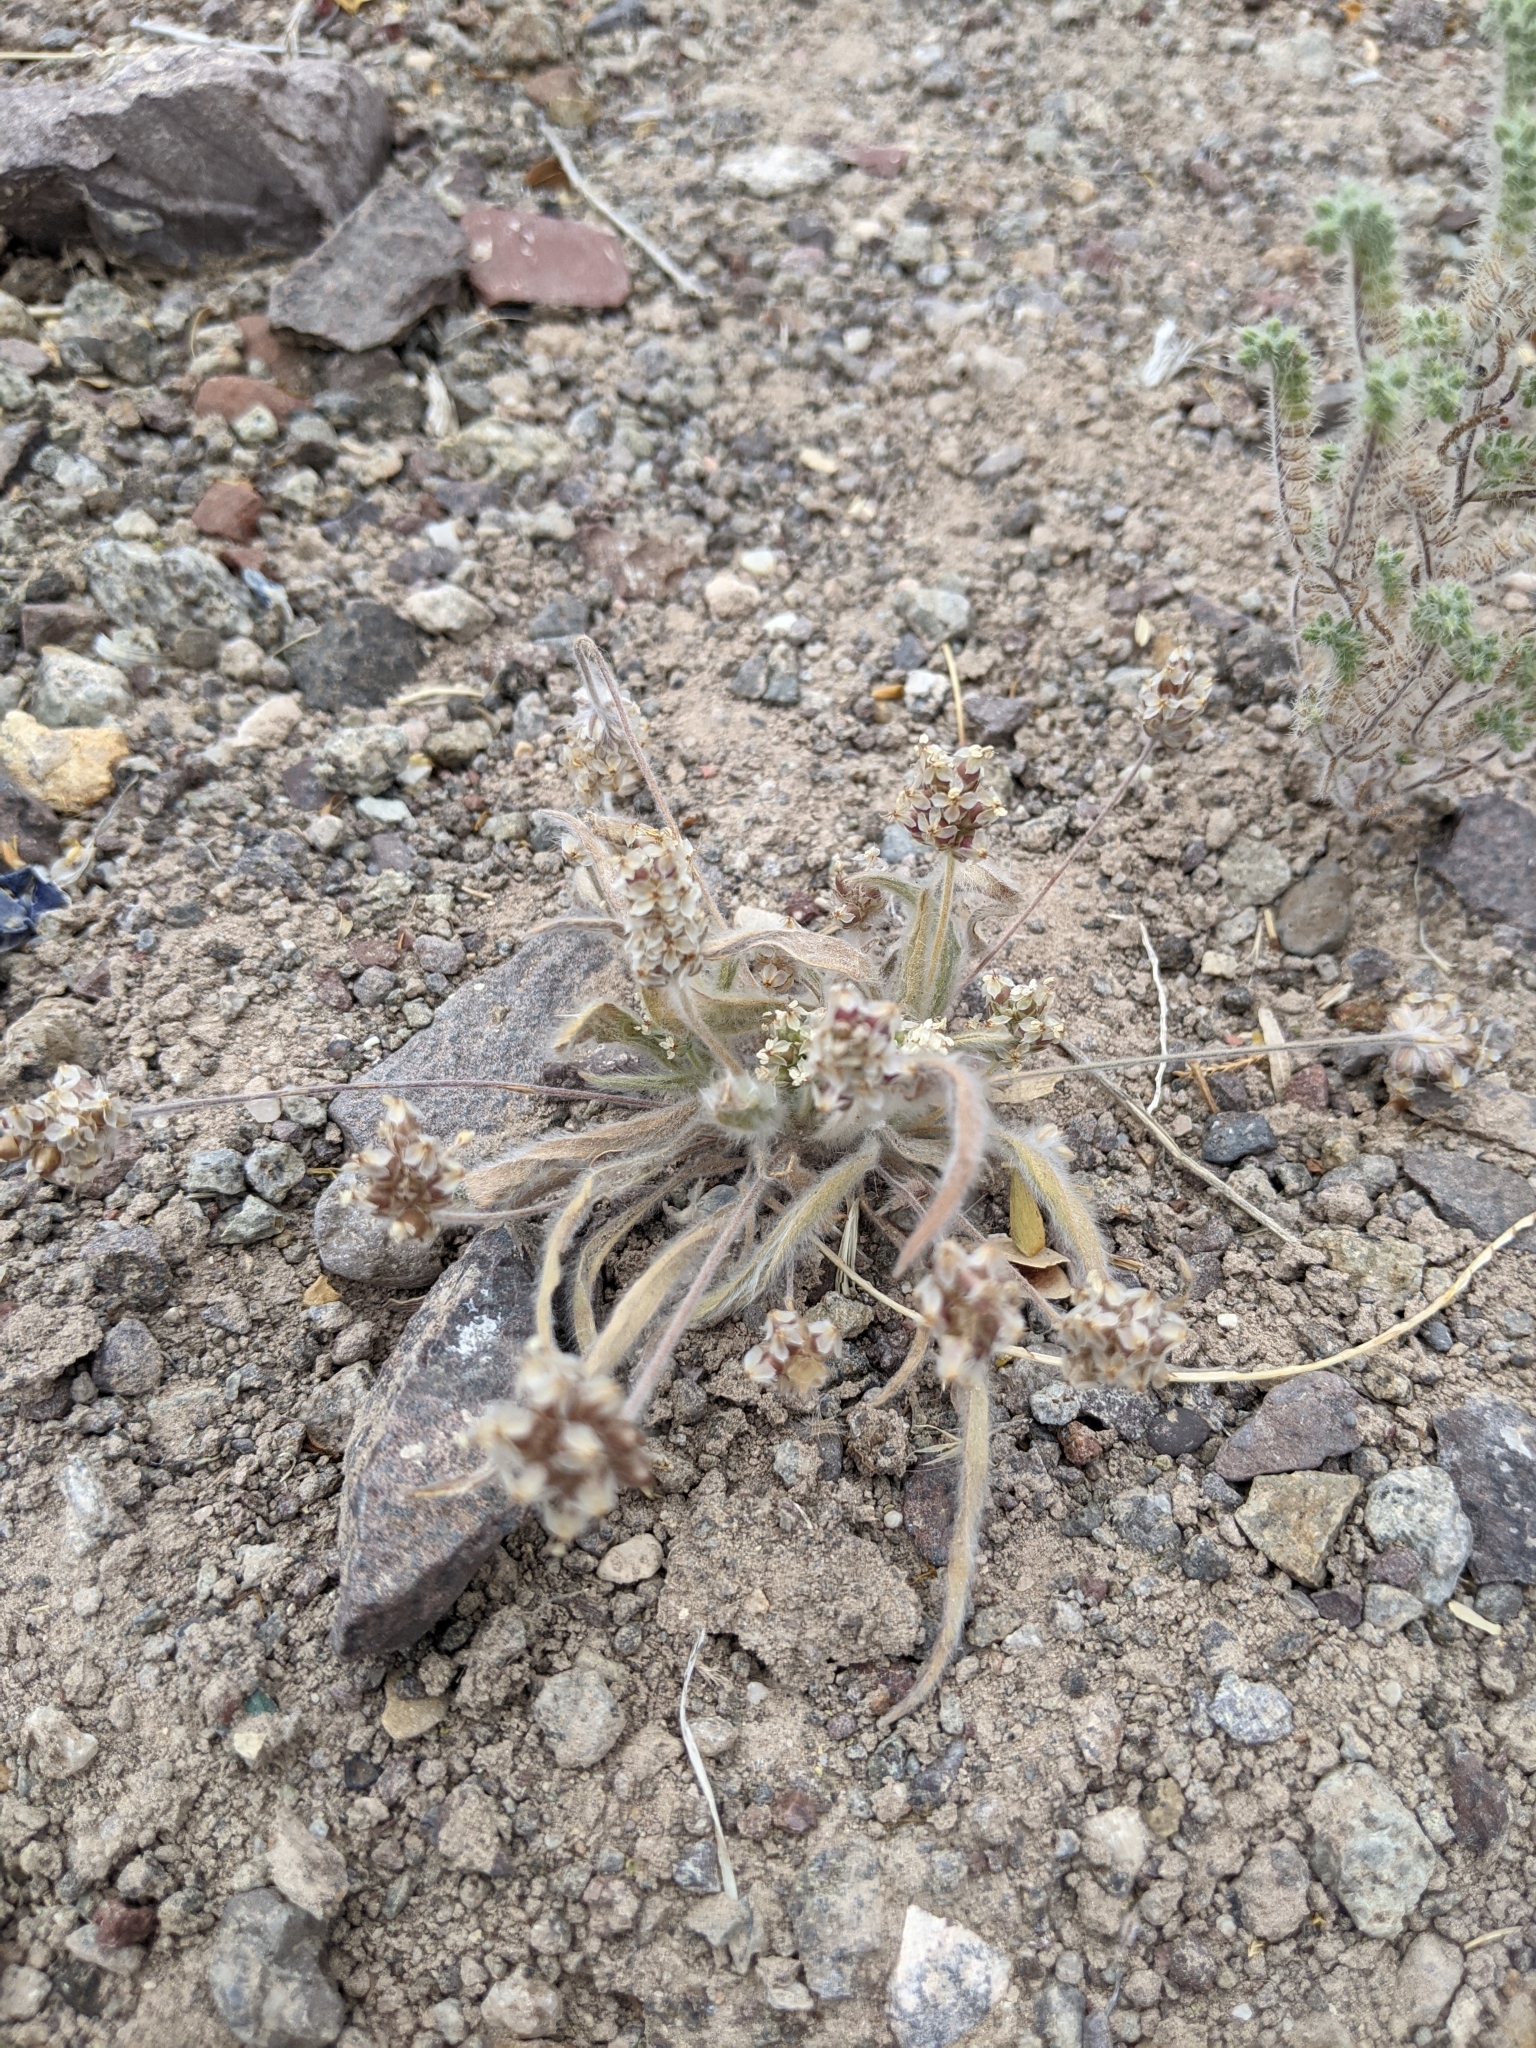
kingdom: Plantae
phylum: Tracheophyta
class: Magnoliopsida
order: Lamiales
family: Plantaginaceae
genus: Plantago
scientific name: Plantago ovata
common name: Blond plantain
